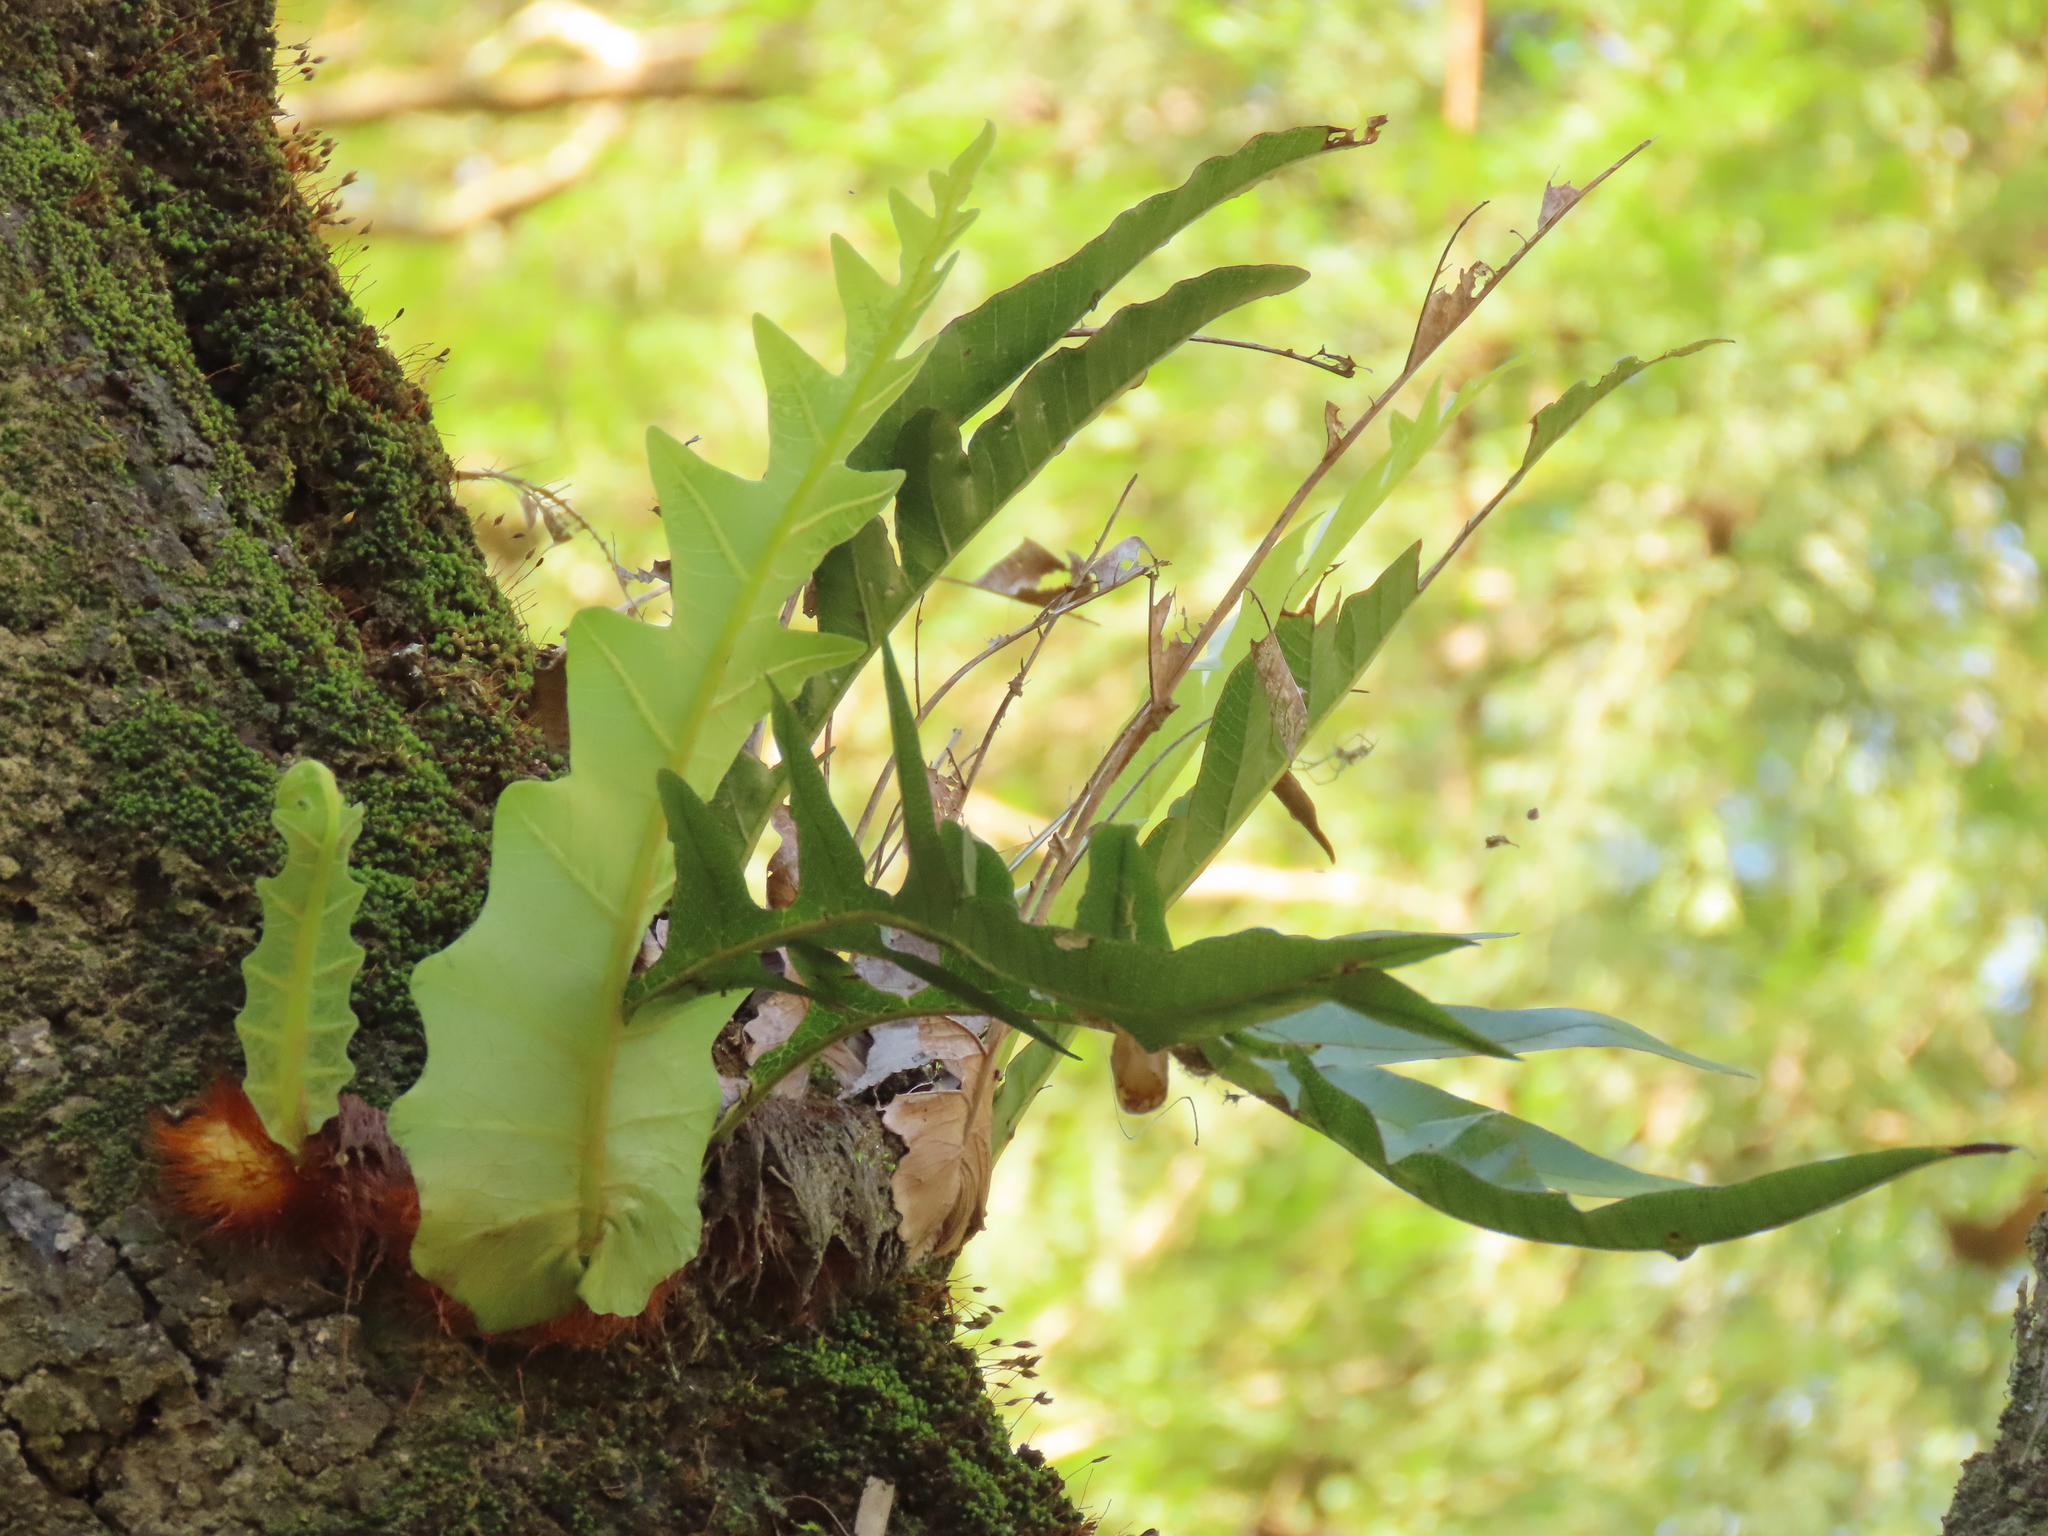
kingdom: Plantae
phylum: Tracheophyta
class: Polypodiopsida
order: Polypodiales
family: Polypodiaceae
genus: Drynaria
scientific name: Drynaria coronans
